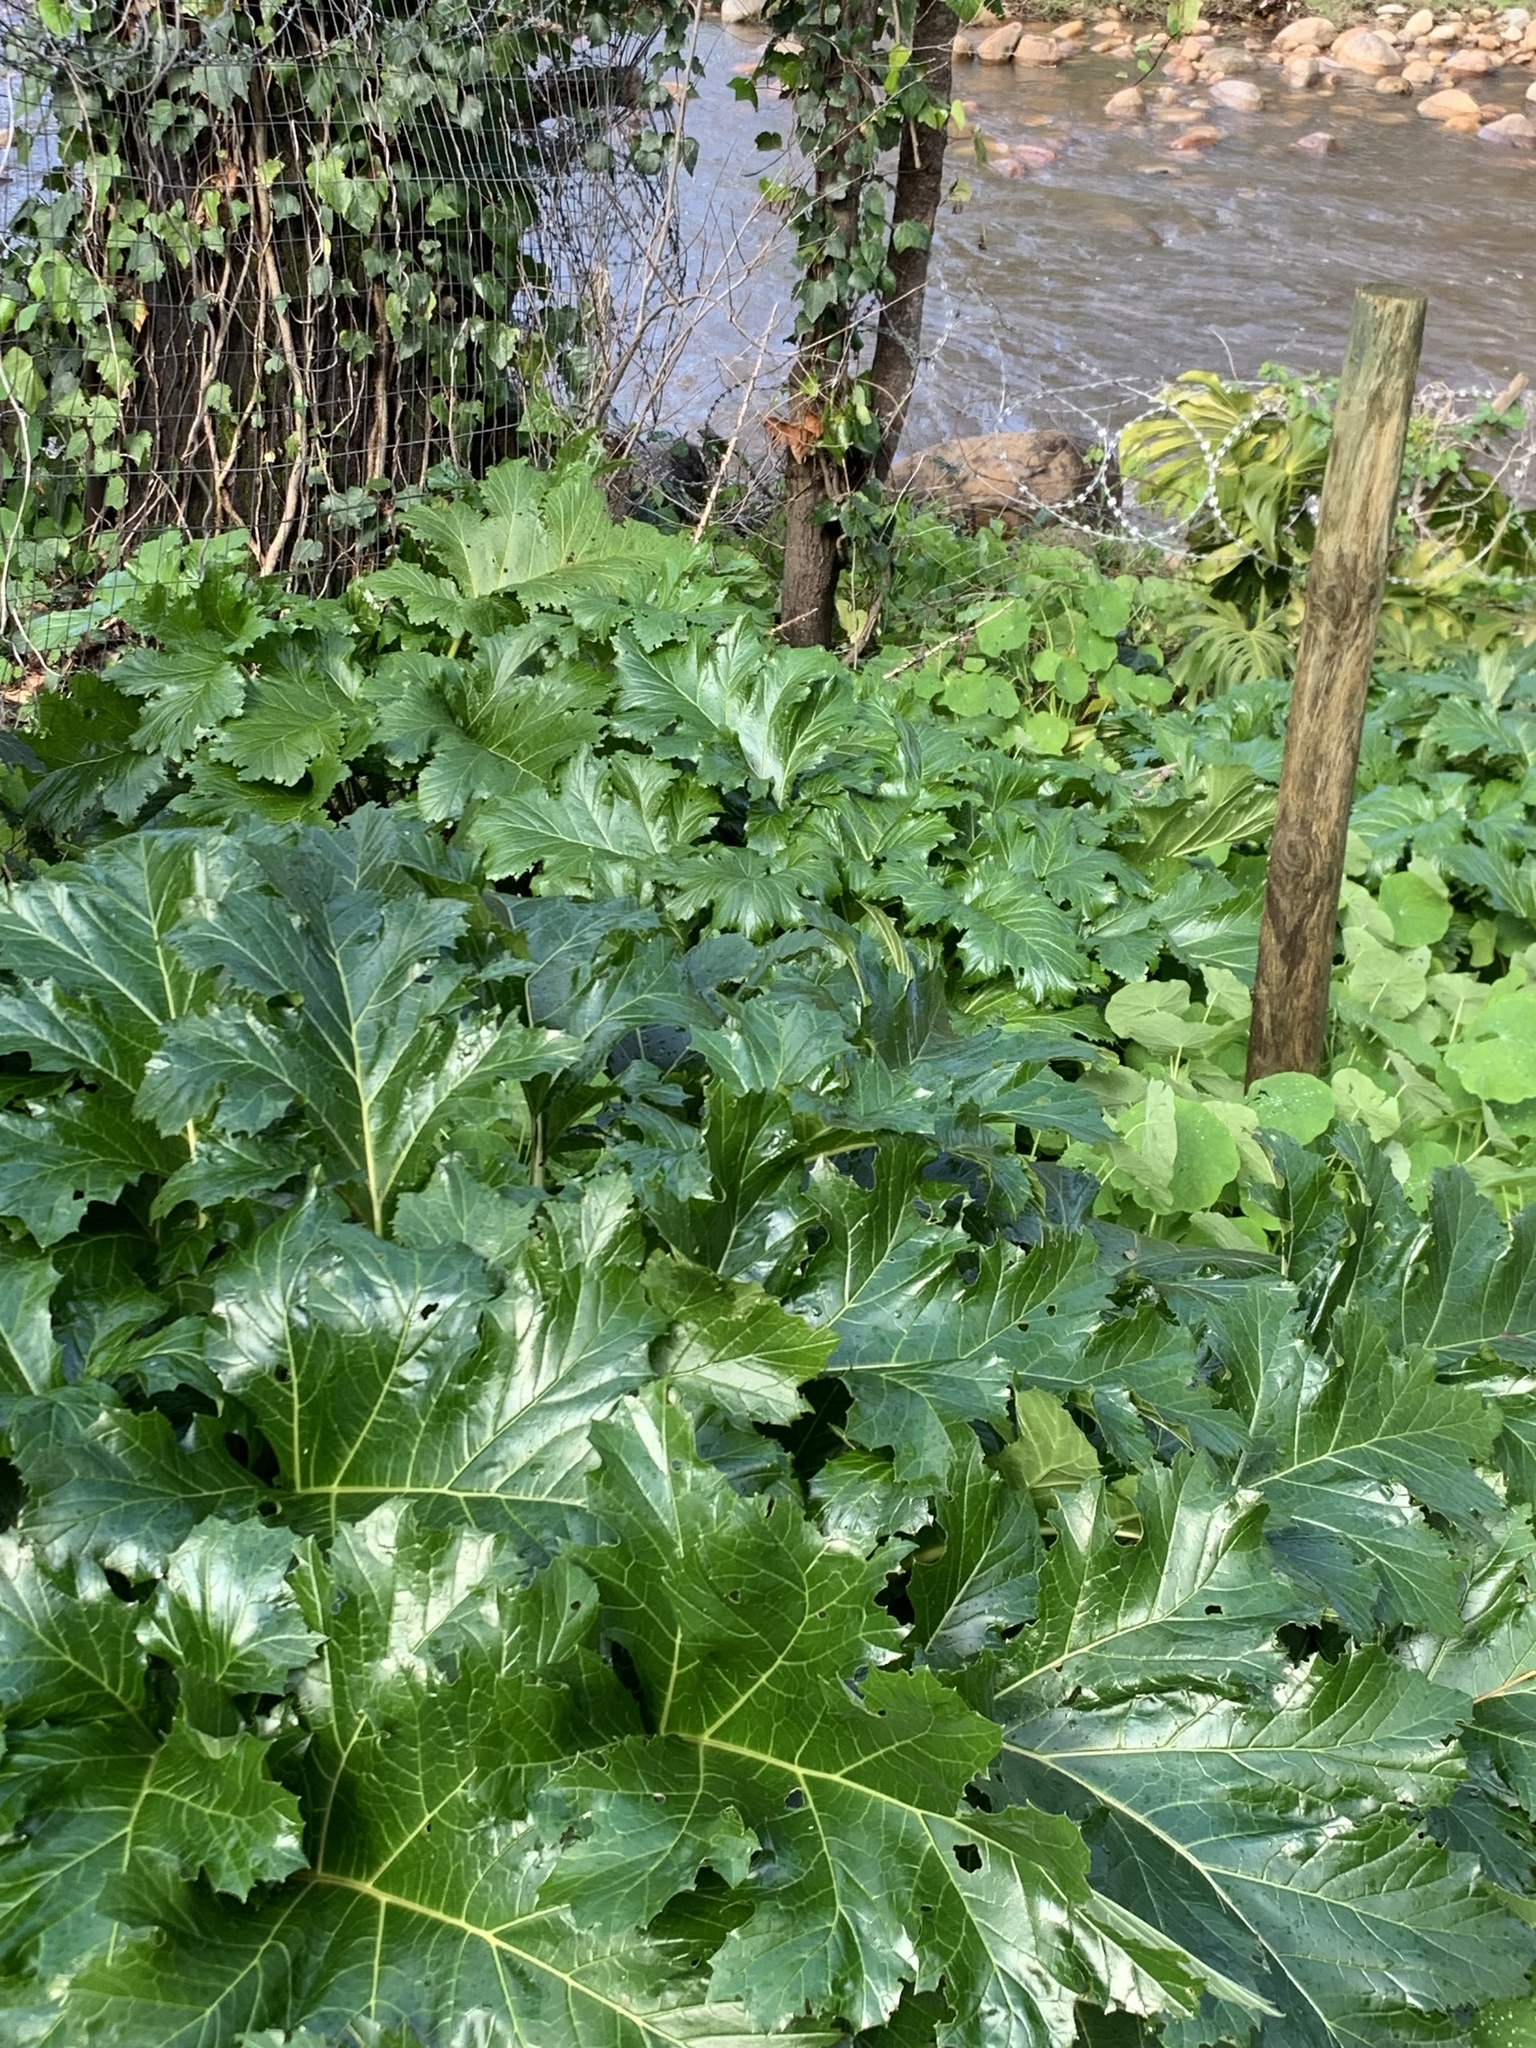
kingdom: Plantae
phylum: Tracheophyta
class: Magnoliopsida
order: Lamiales
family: Acanthaceae
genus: Acanthus
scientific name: Acanthus mollis
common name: Bear's-breech
